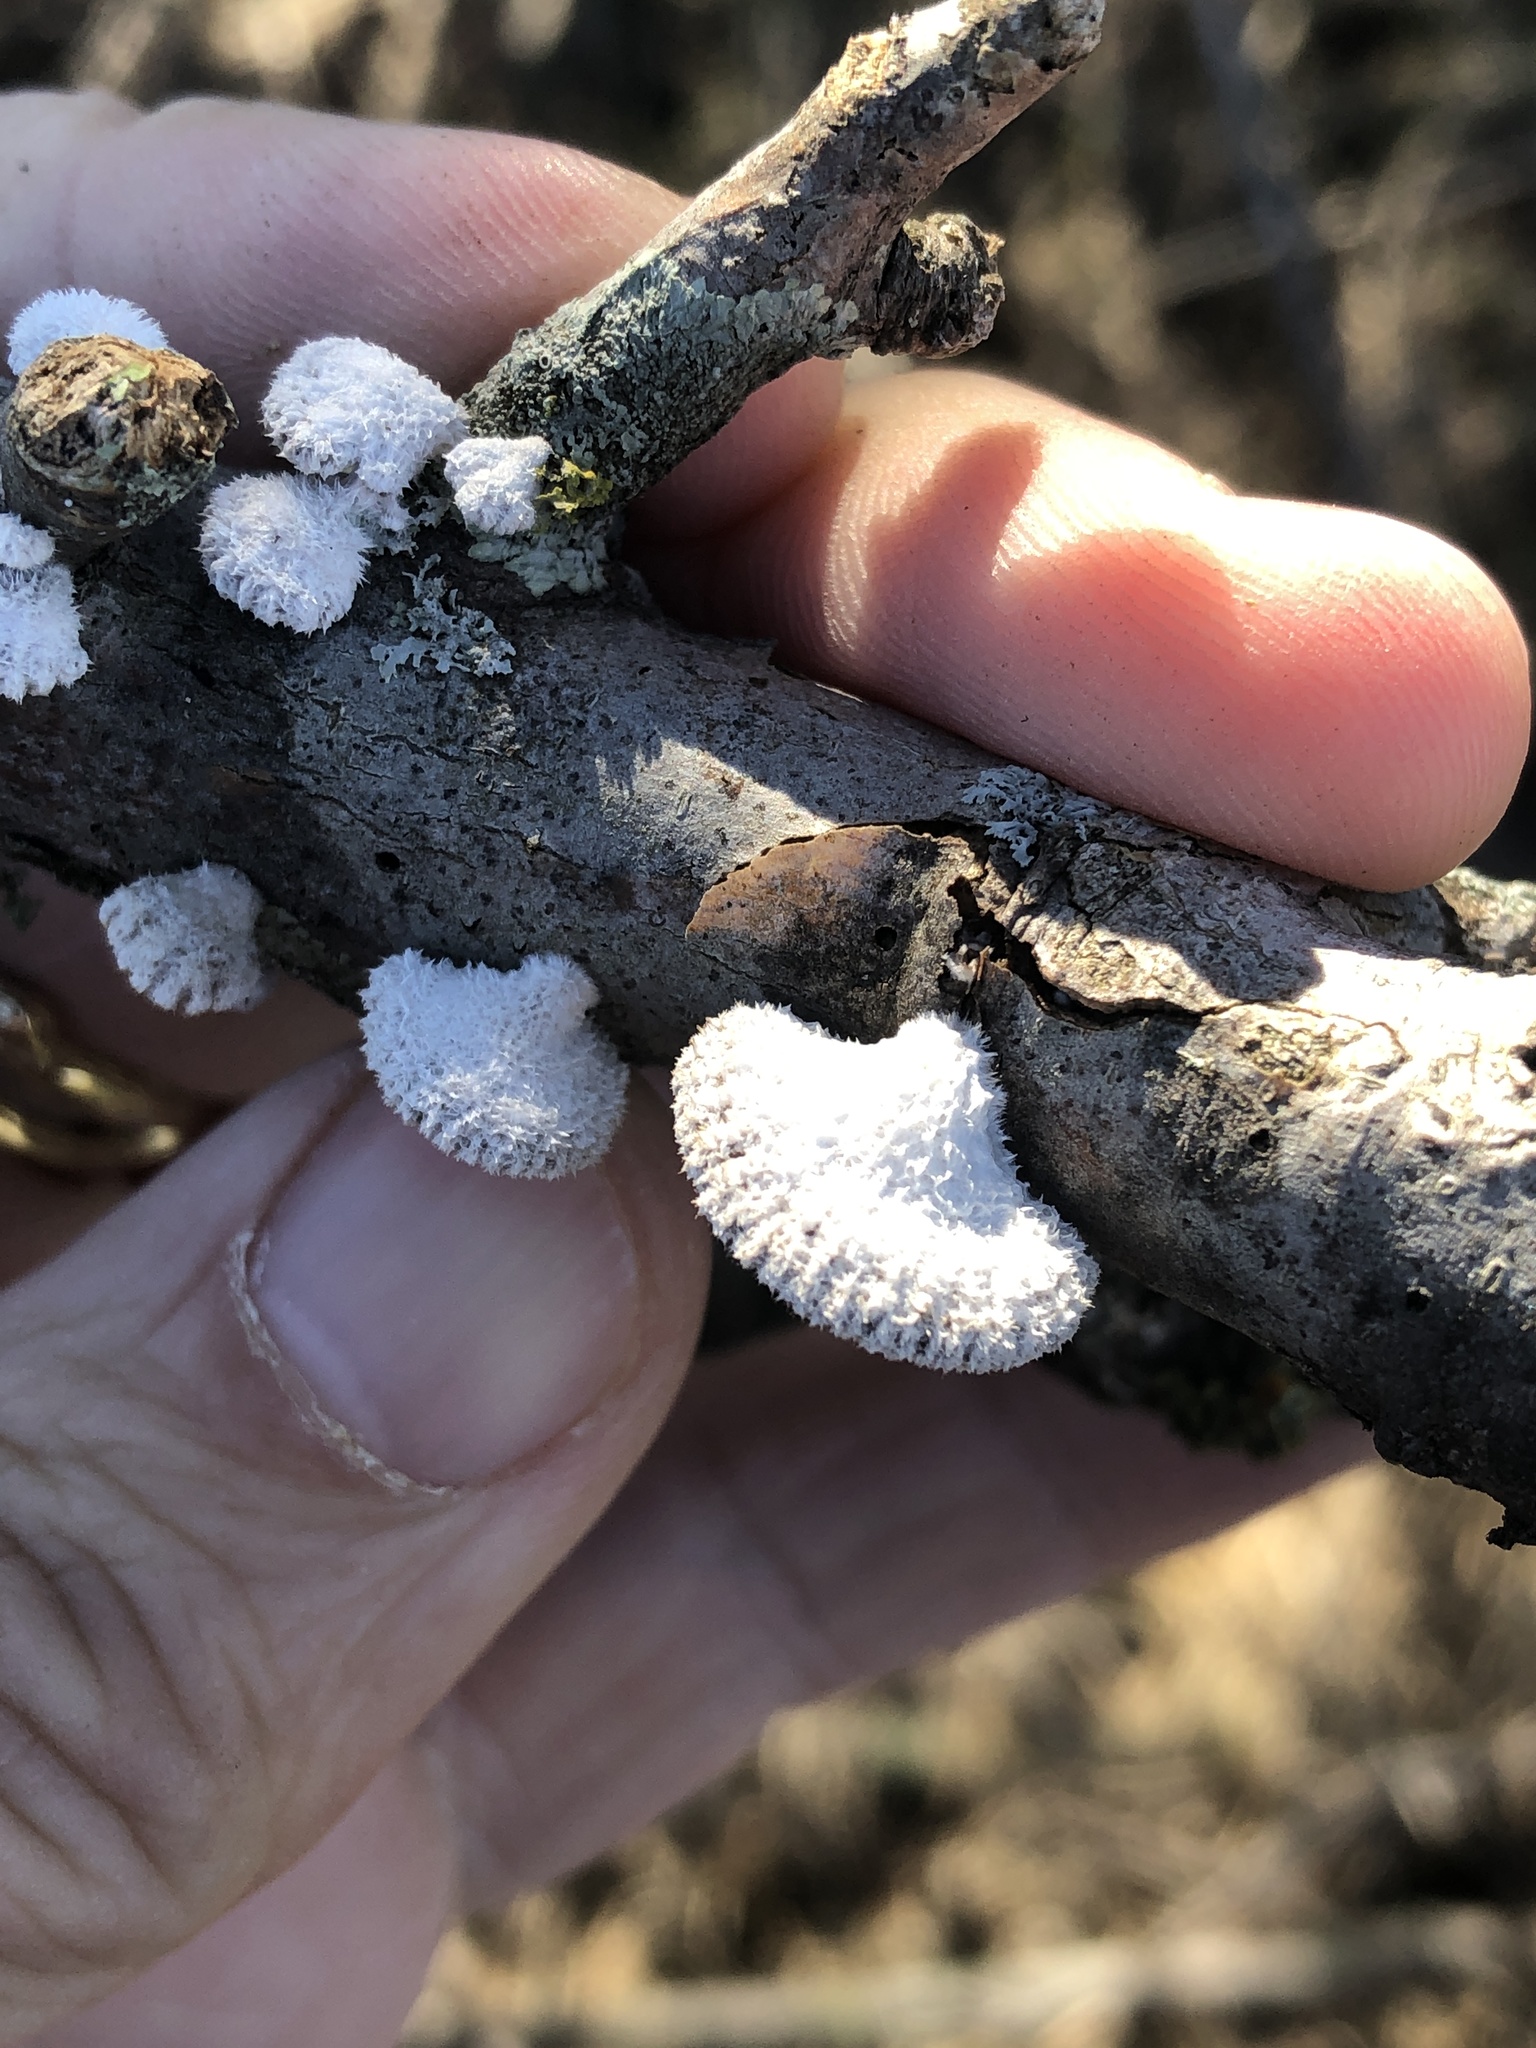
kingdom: Fungi
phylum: Basidiomycota
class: Agaricomycetes
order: Agaricales
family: Schizophyllaceae
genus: Schizophyllum
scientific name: Schizophyllum commune
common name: Common porecrust
